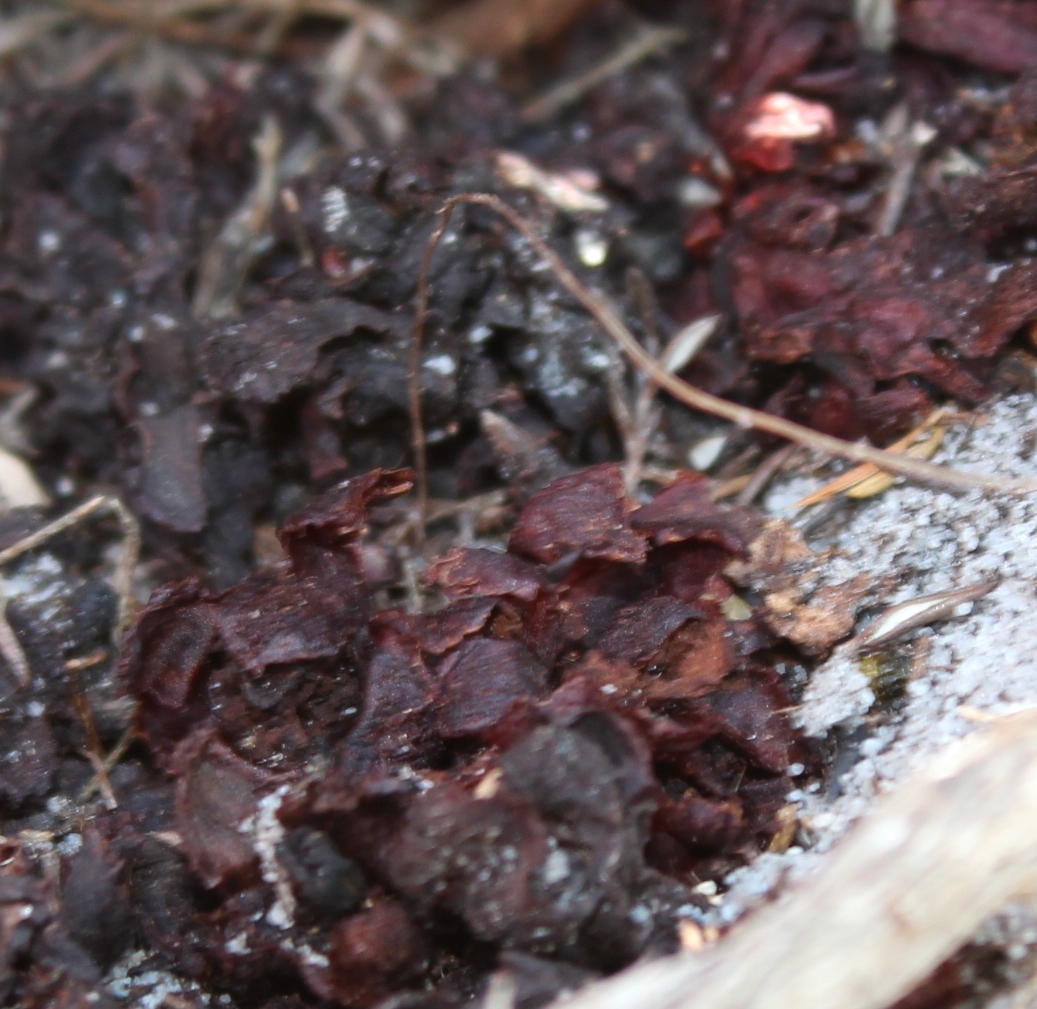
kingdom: Plantae
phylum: Tracheophyta
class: Magnoliopsida
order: Malvales
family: Cytinaceae
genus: Cytinus
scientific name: Cytinus capensis
